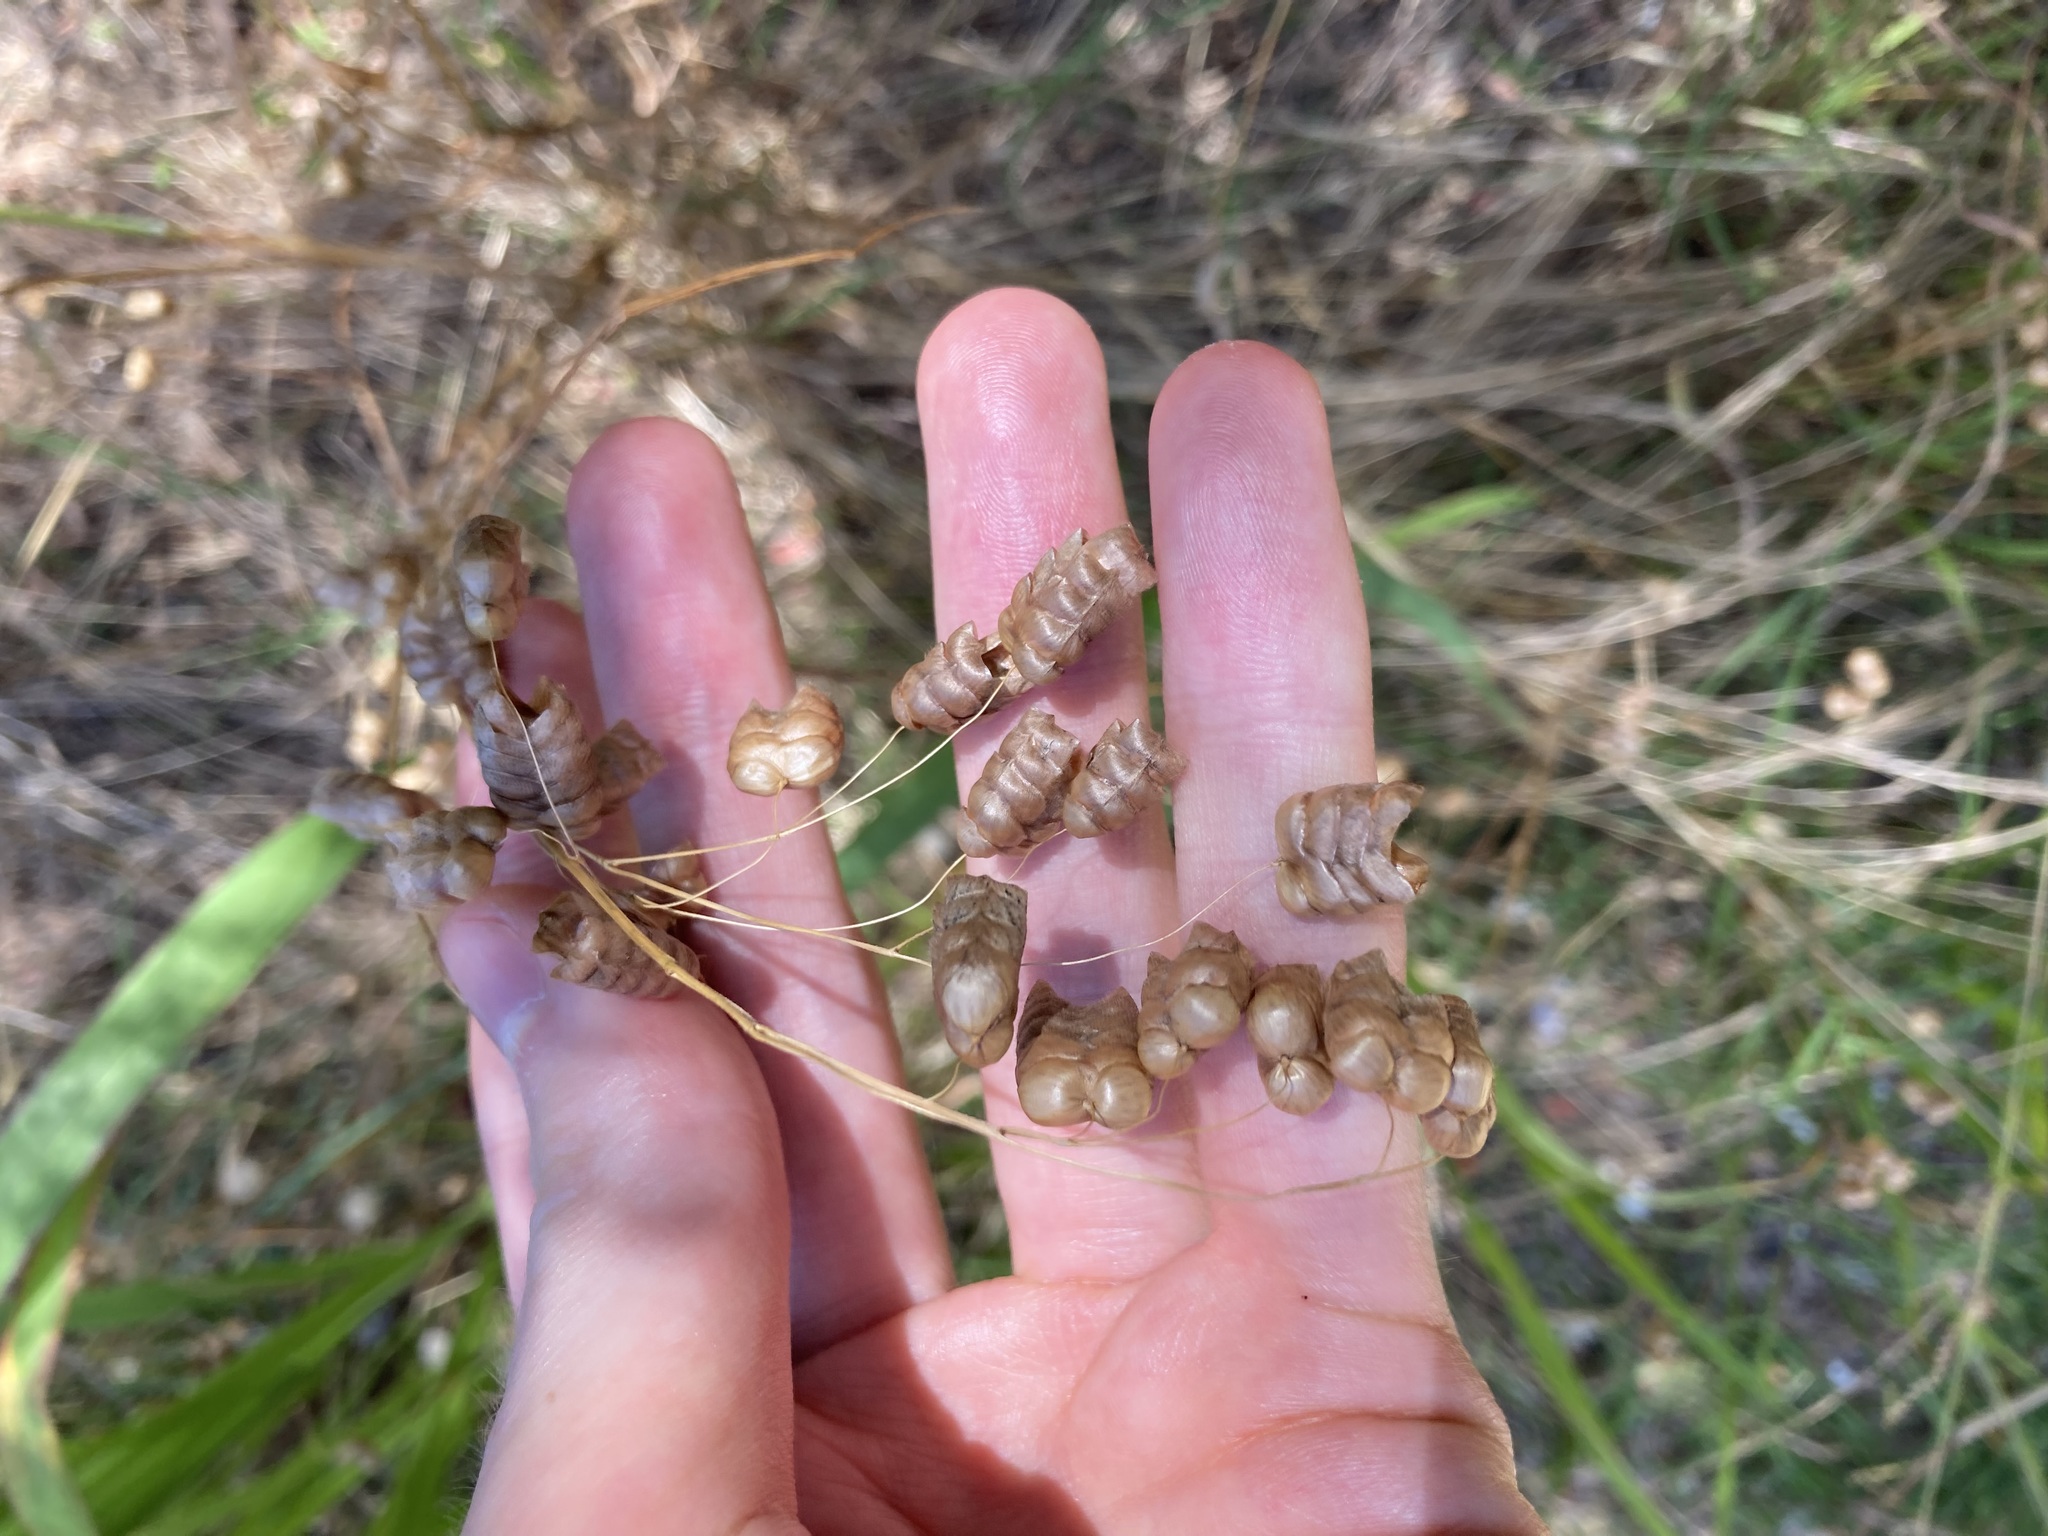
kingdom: Plantae
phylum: Tracheophyta
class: Liliopsida
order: Poales
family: Poaceae
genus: Briza
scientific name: Briza maxima
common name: Big quakinggrass
